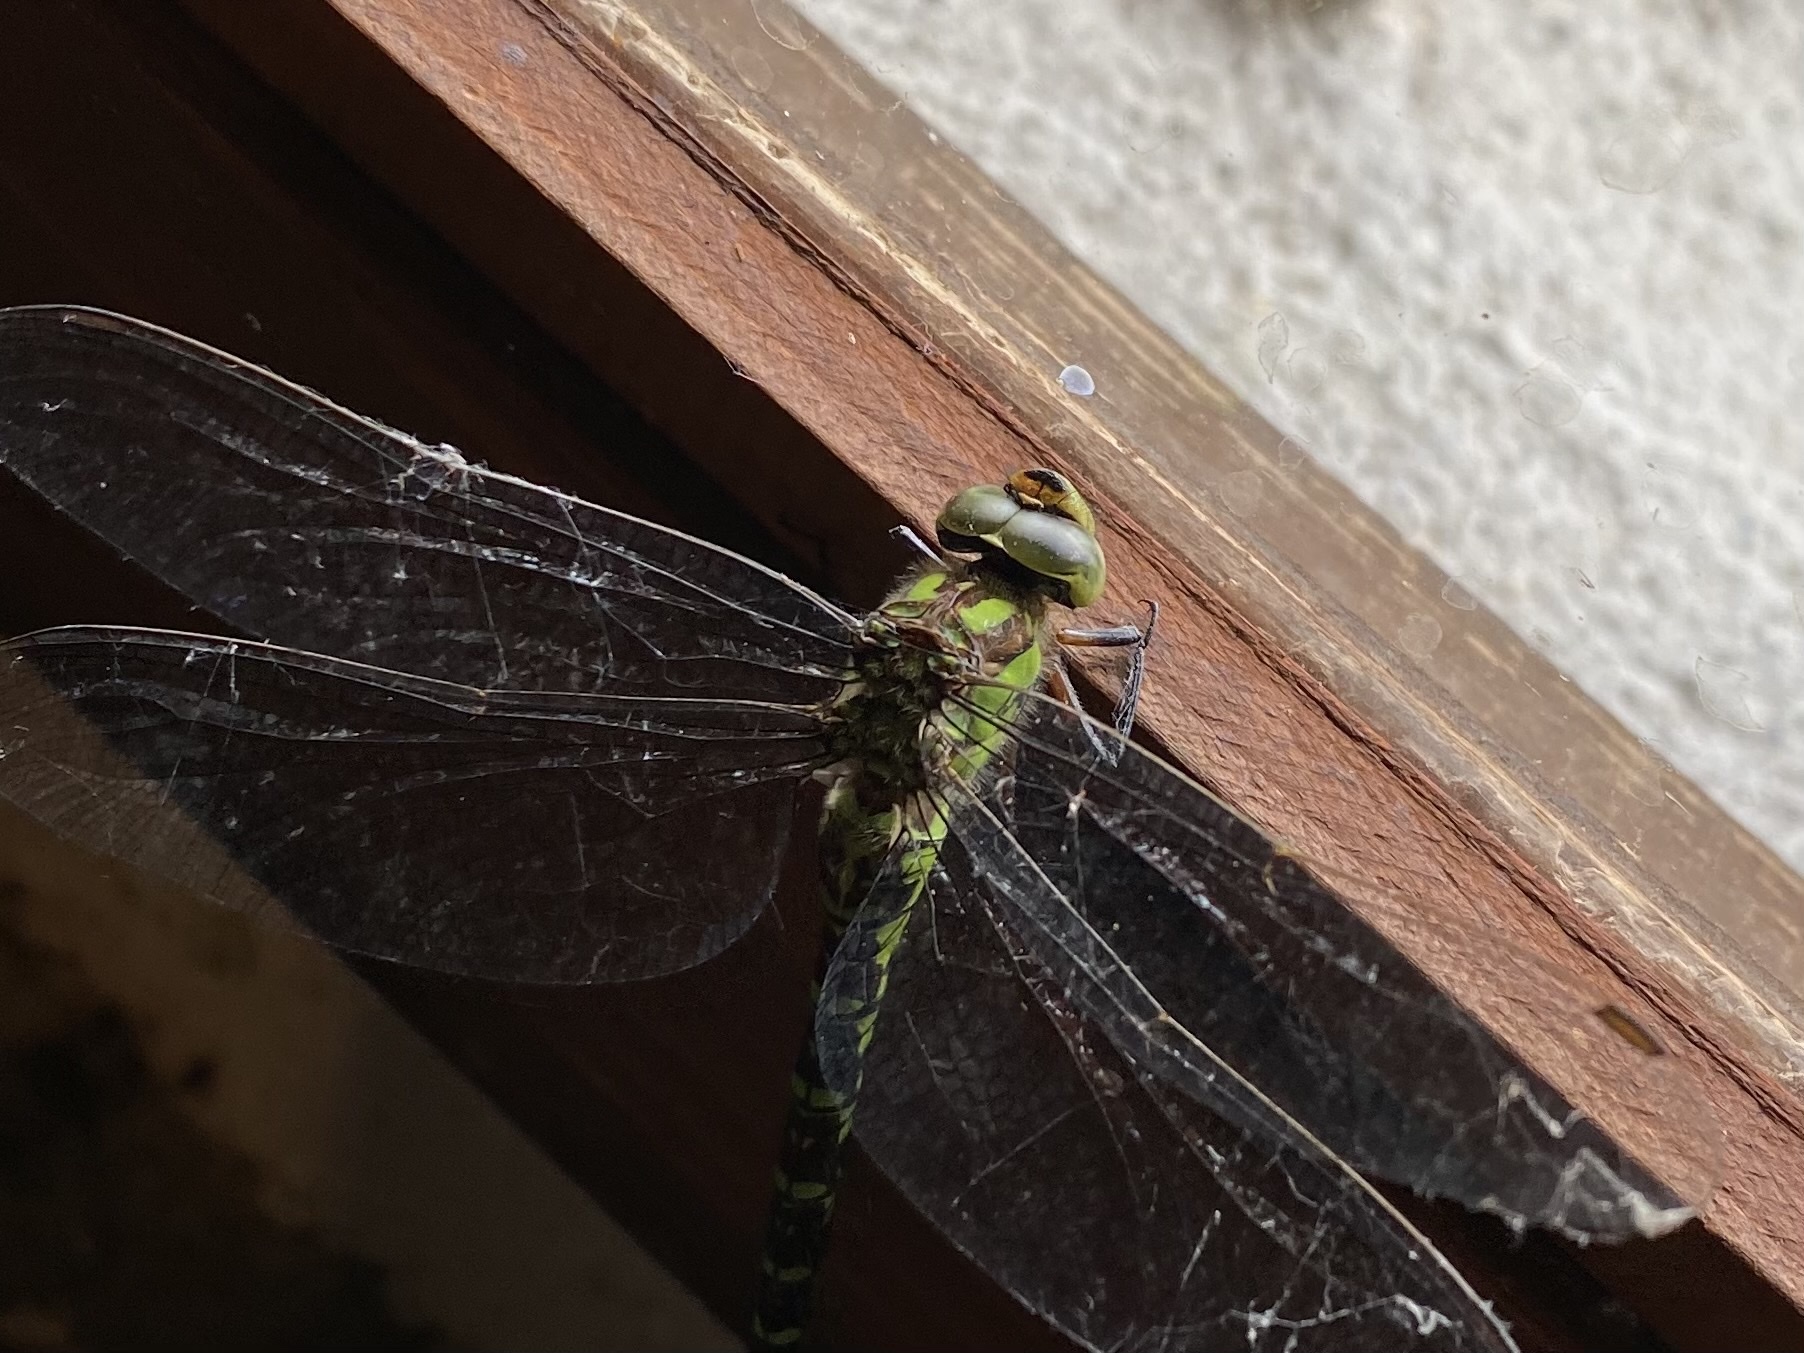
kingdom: Animalia
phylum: Arthropoda
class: Insecta
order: Odonata
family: Aeshnidae
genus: Aeshna
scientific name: Aeshna cyanea
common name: Southern hawker
